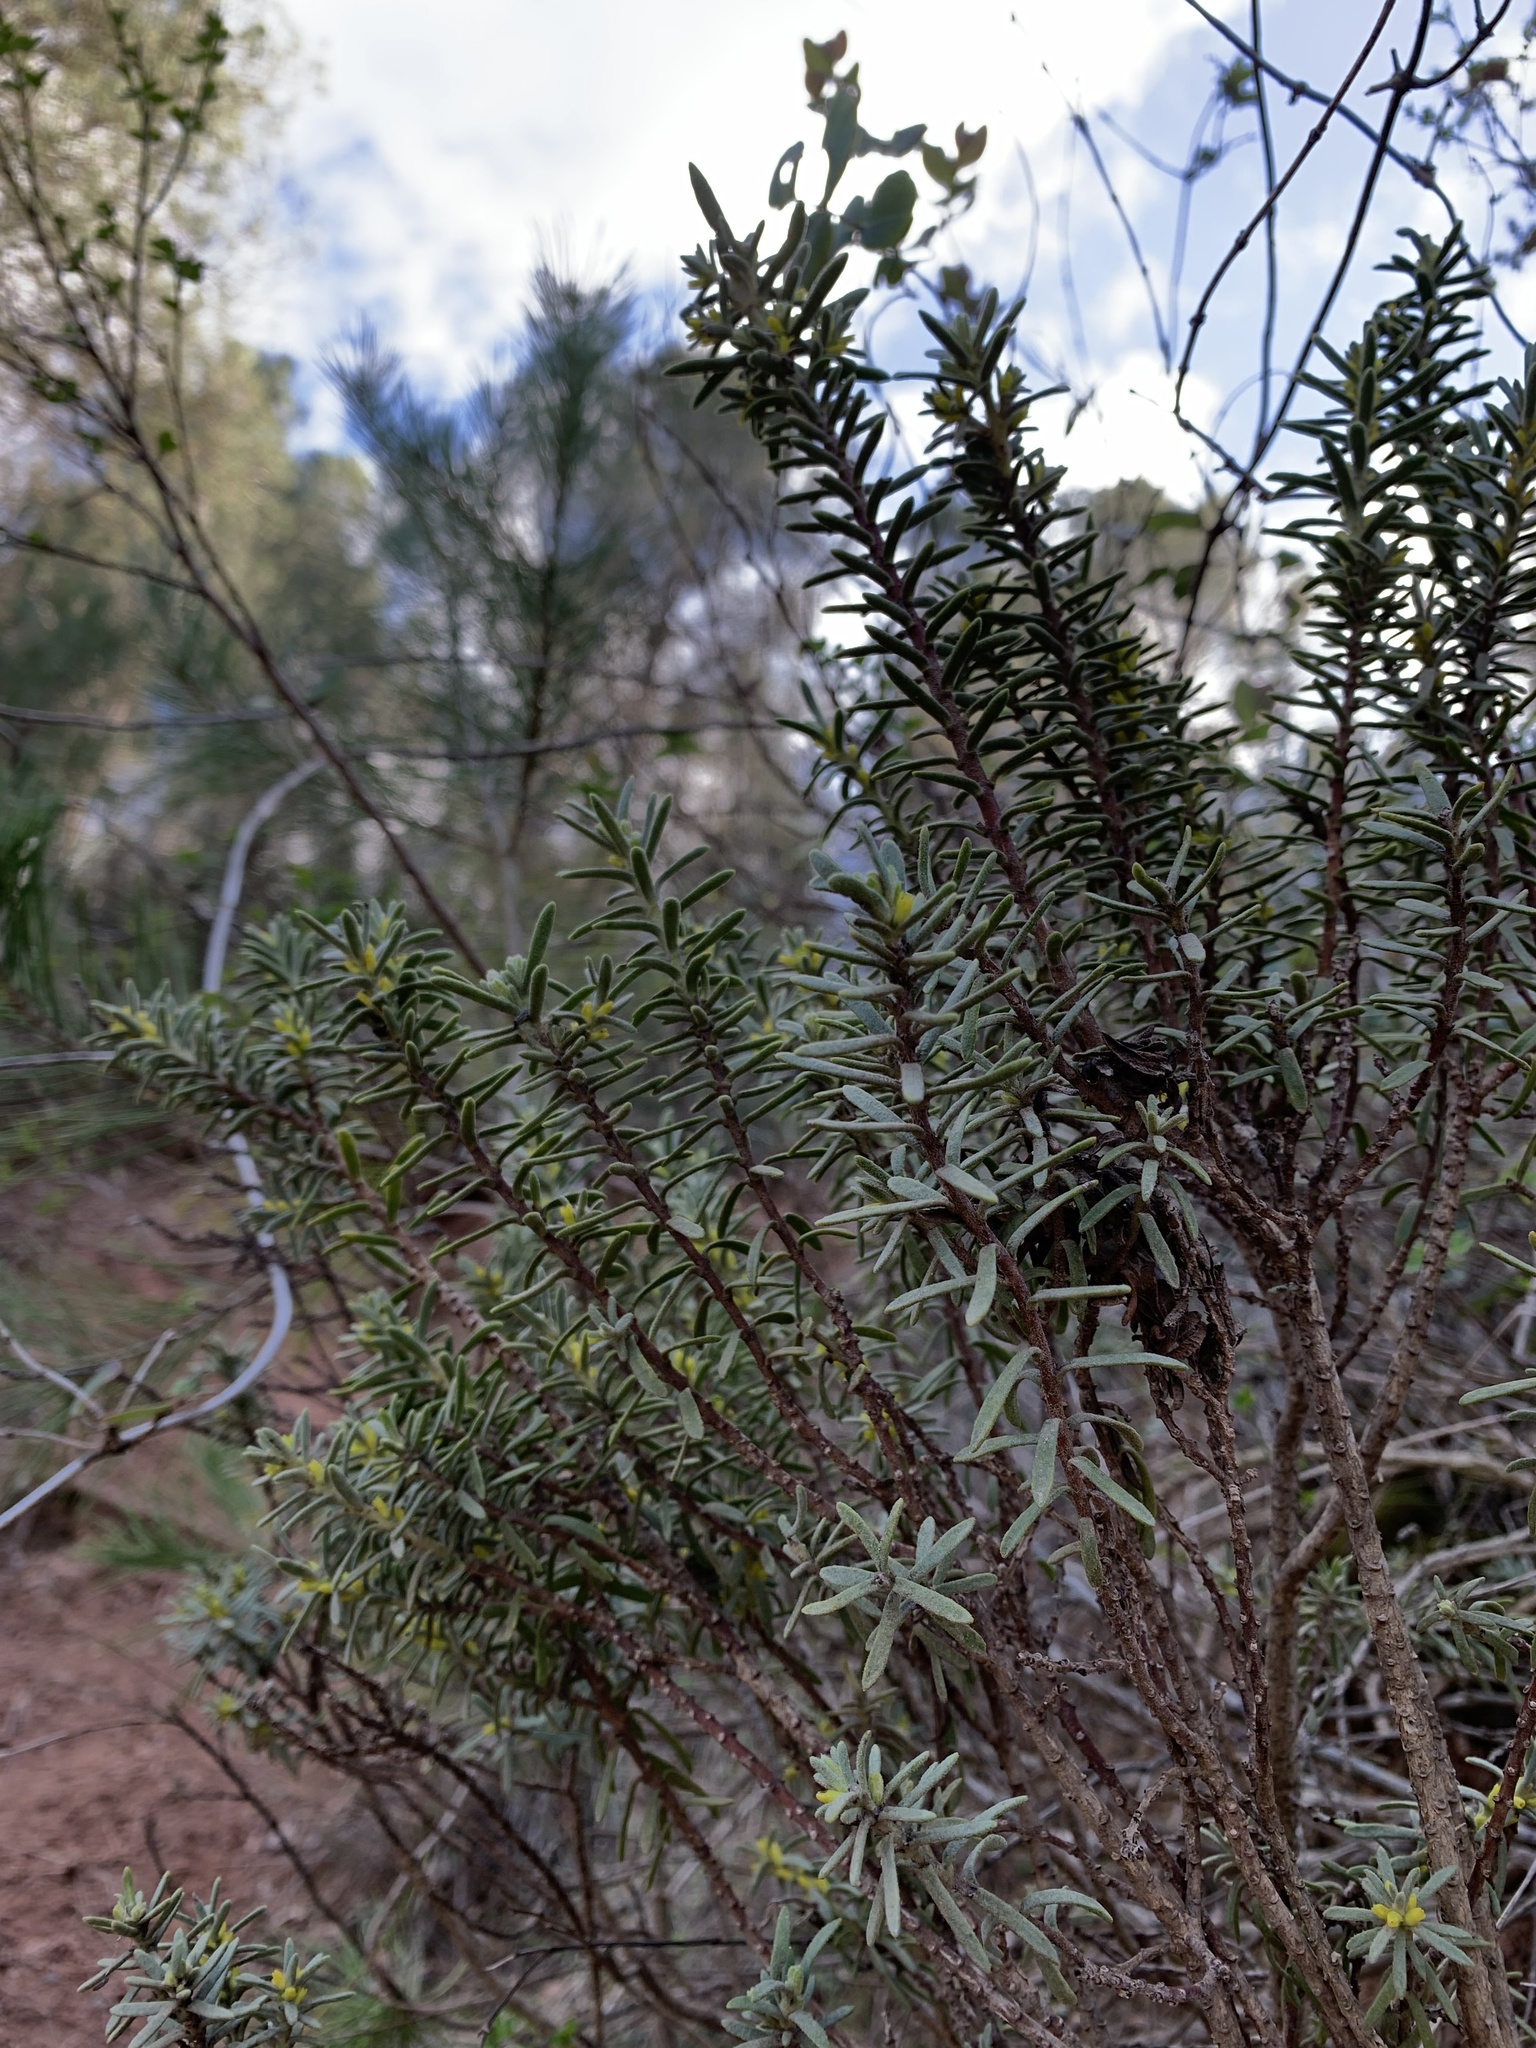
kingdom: Plantae
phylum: Tracheophyta
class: Magnoliopsida
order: Malvales
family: Thymelaeaceae
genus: Thymelaea
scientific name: Thymelaea tinctoria
